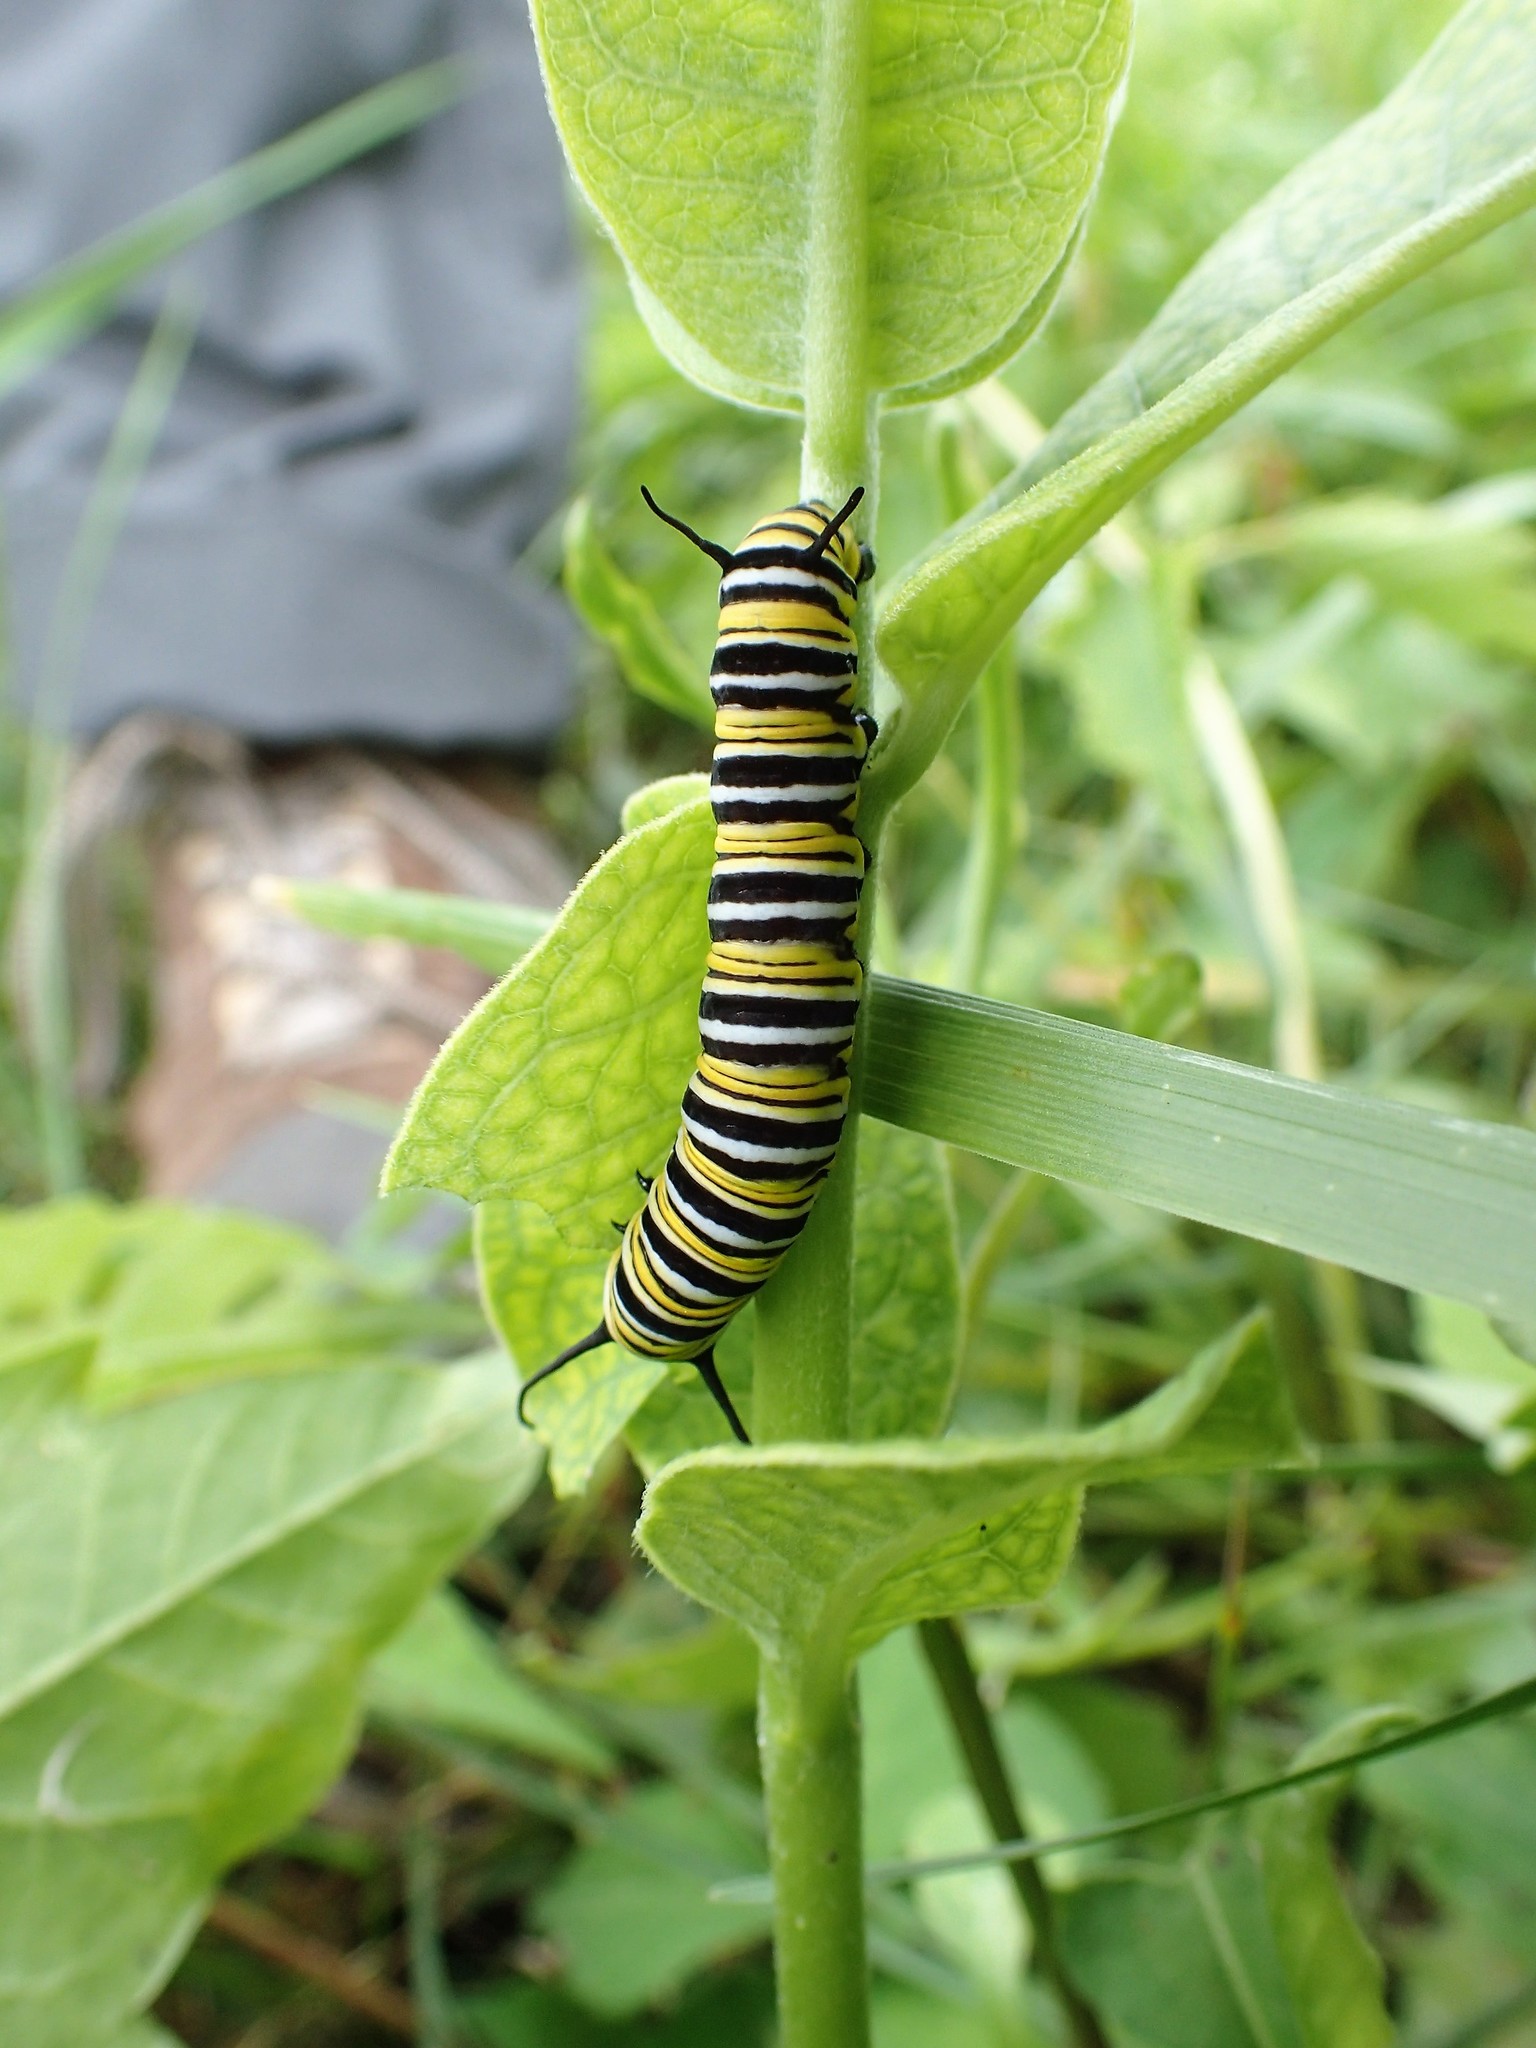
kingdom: Animalia
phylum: Arthropoda
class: Insecta
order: Lepidoptera
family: Nymphalidae
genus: Danaus
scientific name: Danaus plexippus
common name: Monarch
